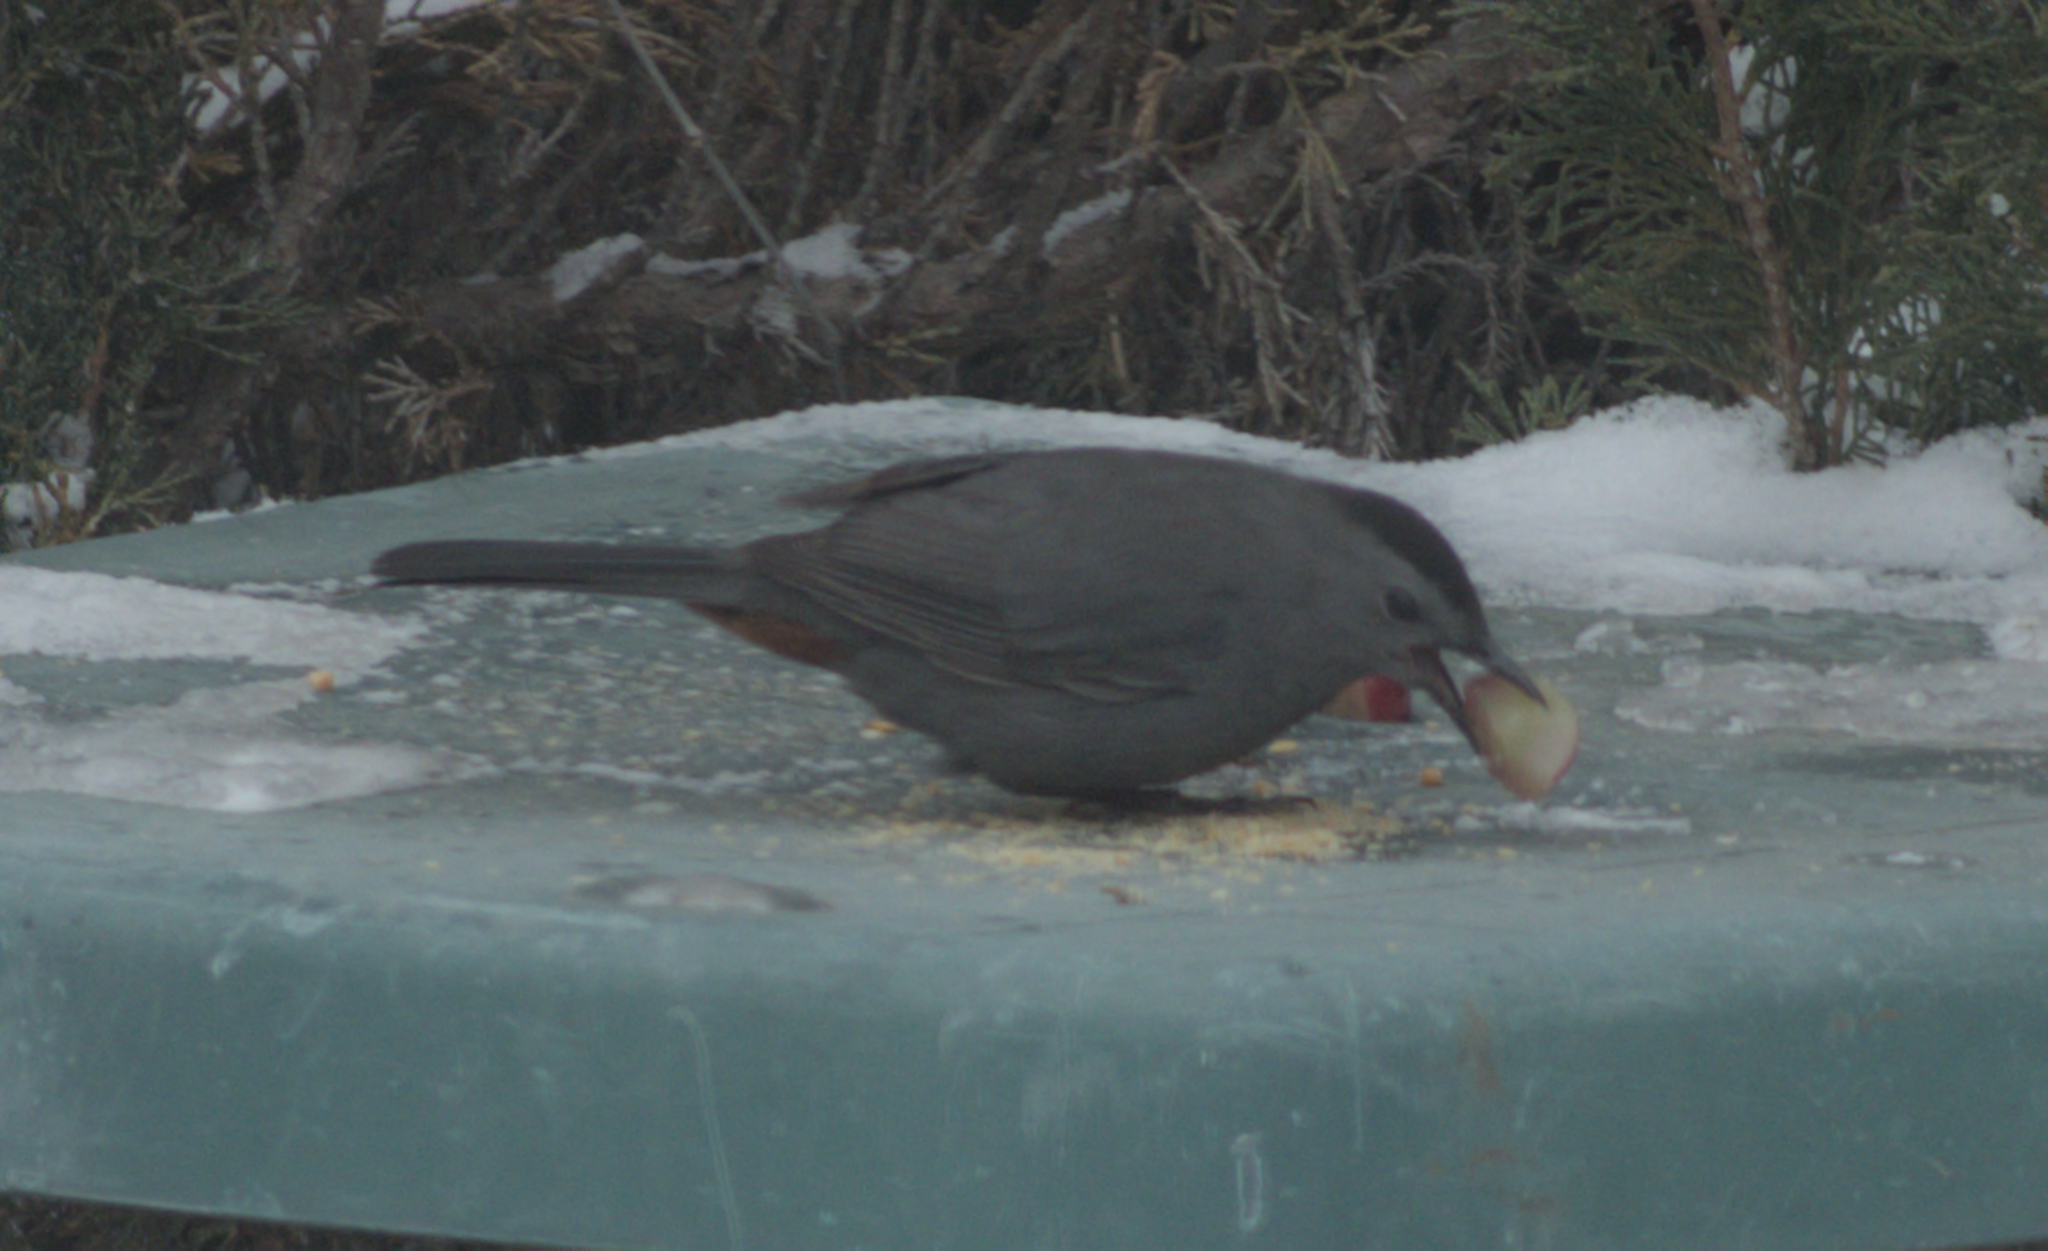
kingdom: Animalia
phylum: Chordata
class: Aves
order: Passeriformes
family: Mimidae
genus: Dumetella
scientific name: Dumetella carolinensis
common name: Gray catbird
